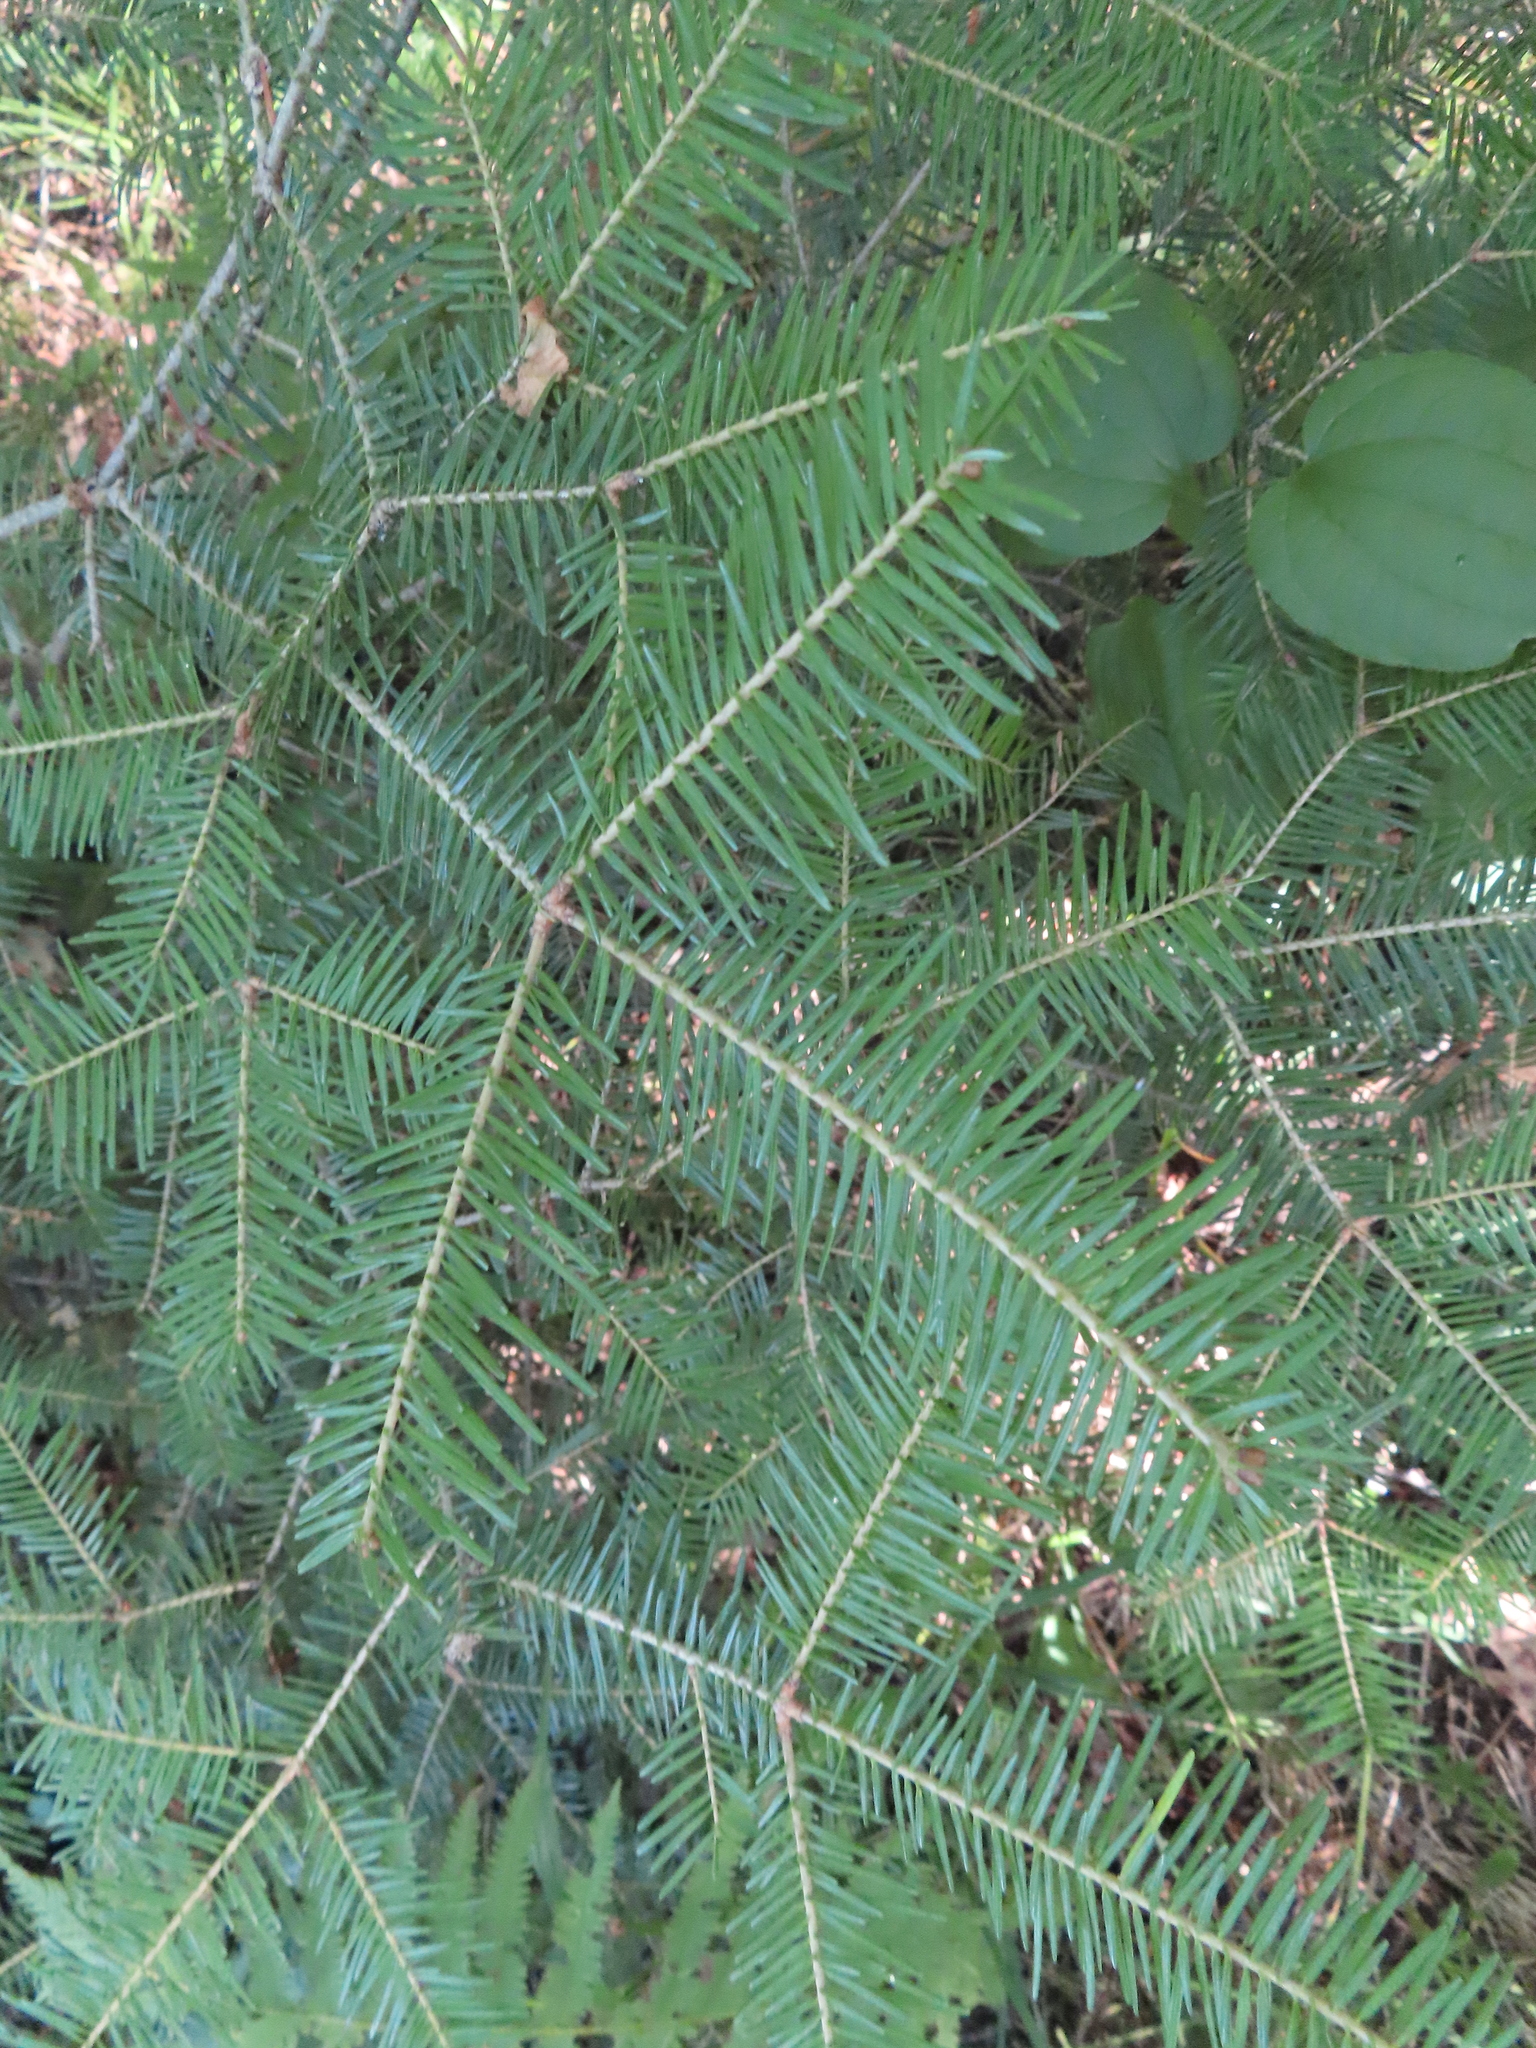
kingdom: Plantae
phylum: Tracheophyta
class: Pinopsida
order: Pinales
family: Pinaceae
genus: Abies
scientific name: Abies balsamea
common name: Balsam fir
